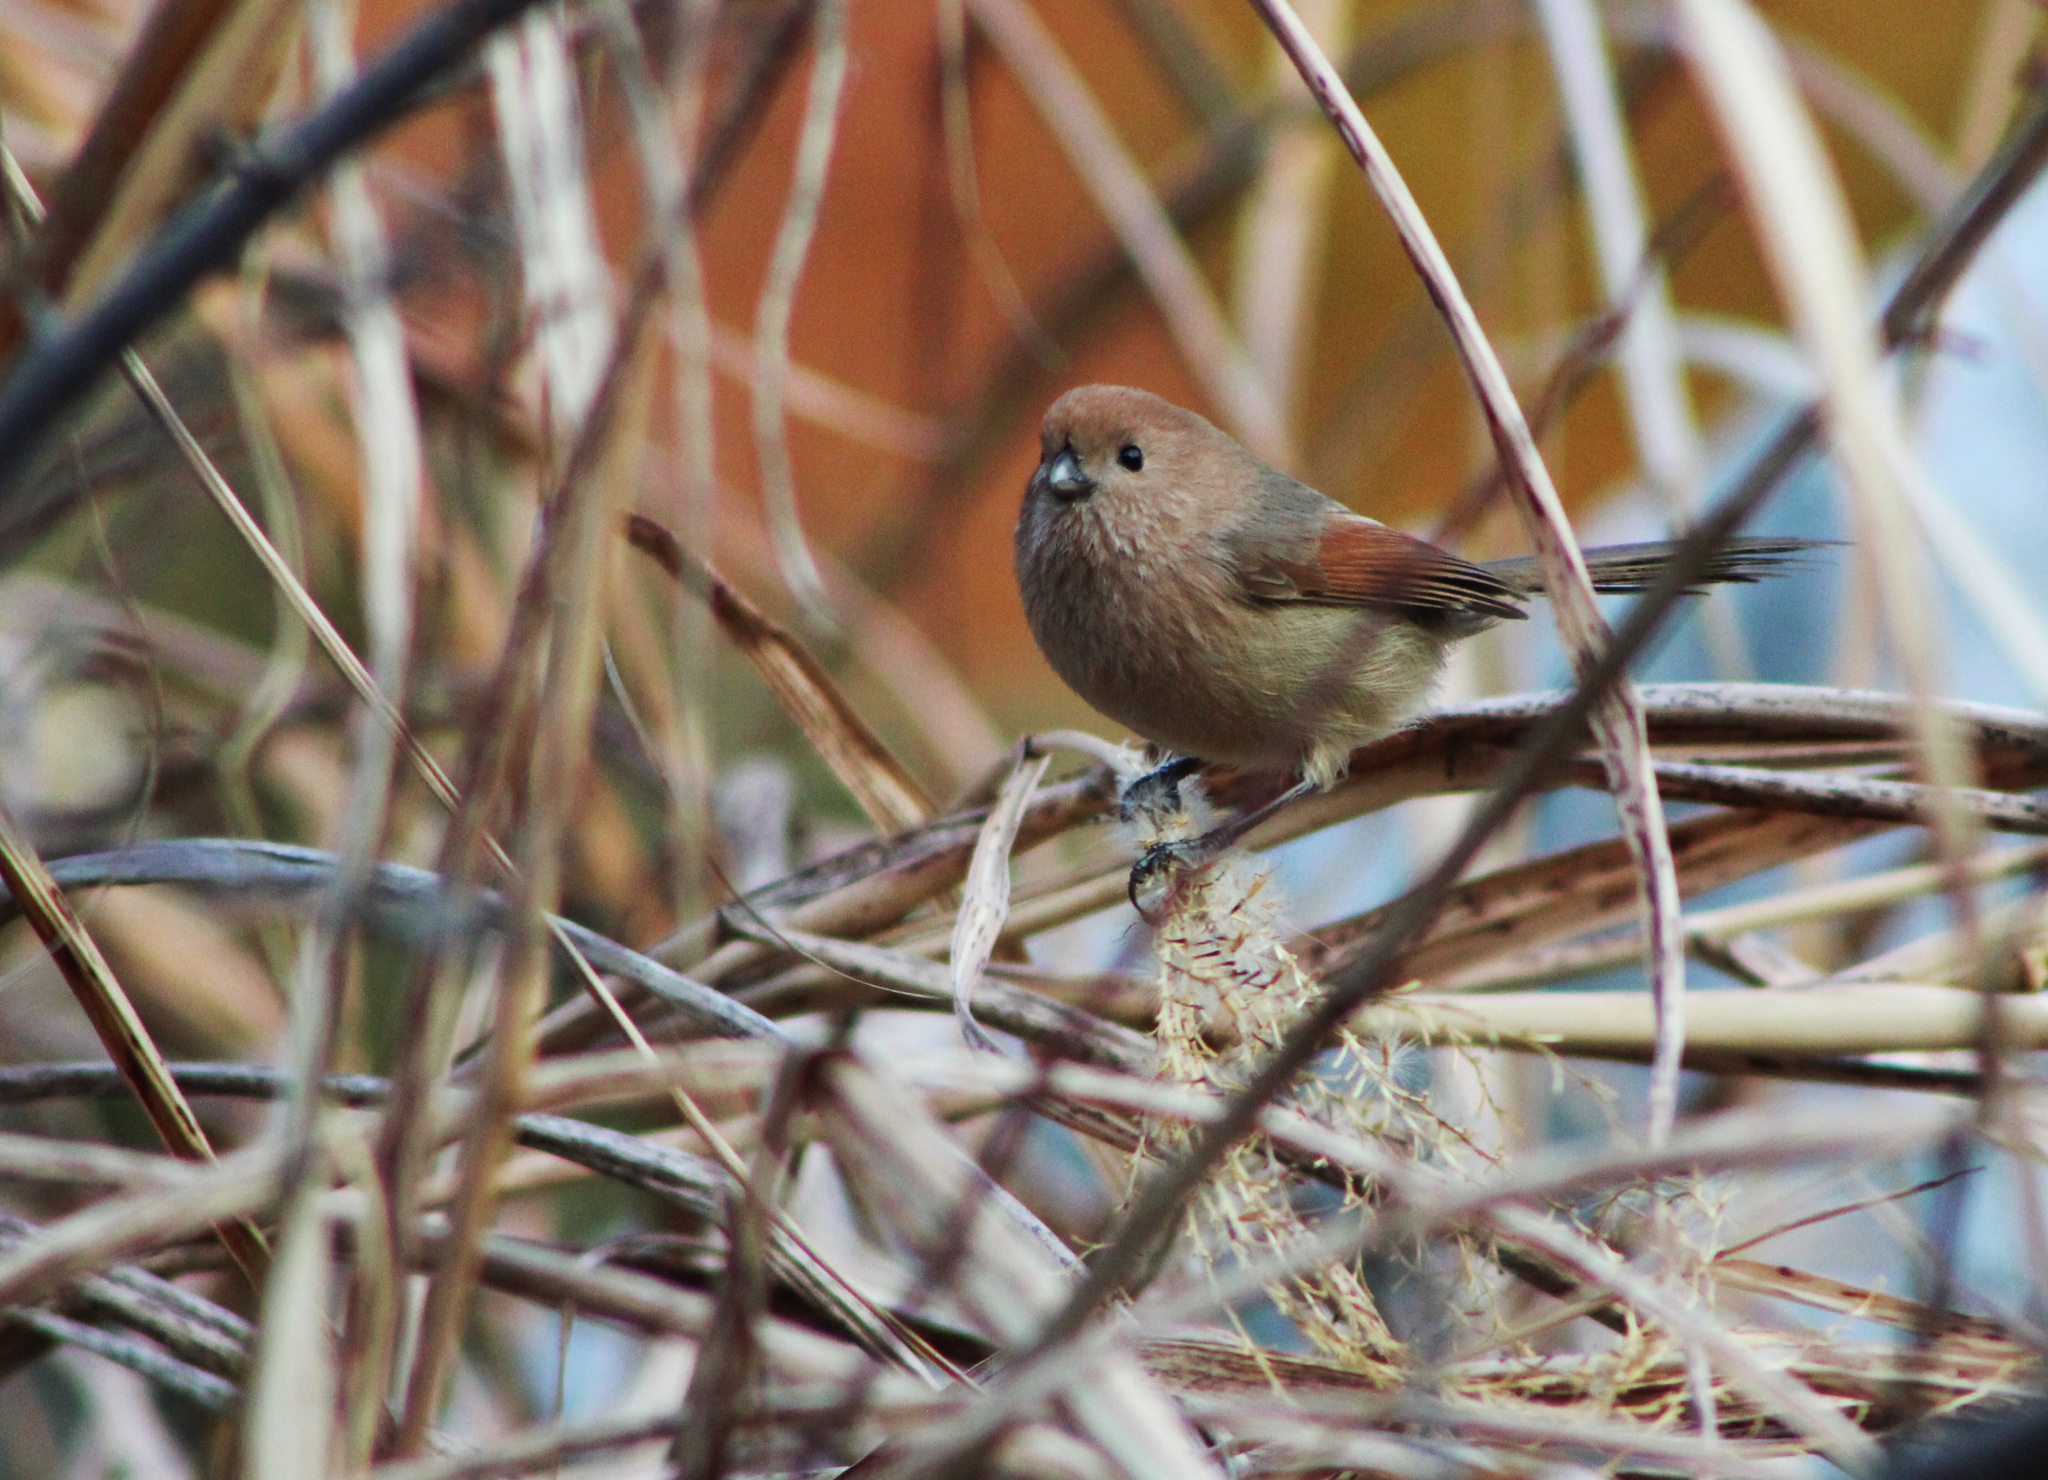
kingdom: Animalia
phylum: Chordata
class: Aves
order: Passeriformes
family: Sylviidae
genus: Sinosuthora
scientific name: Sinosuthora webbiana
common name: Vinous-throated parrotbill
